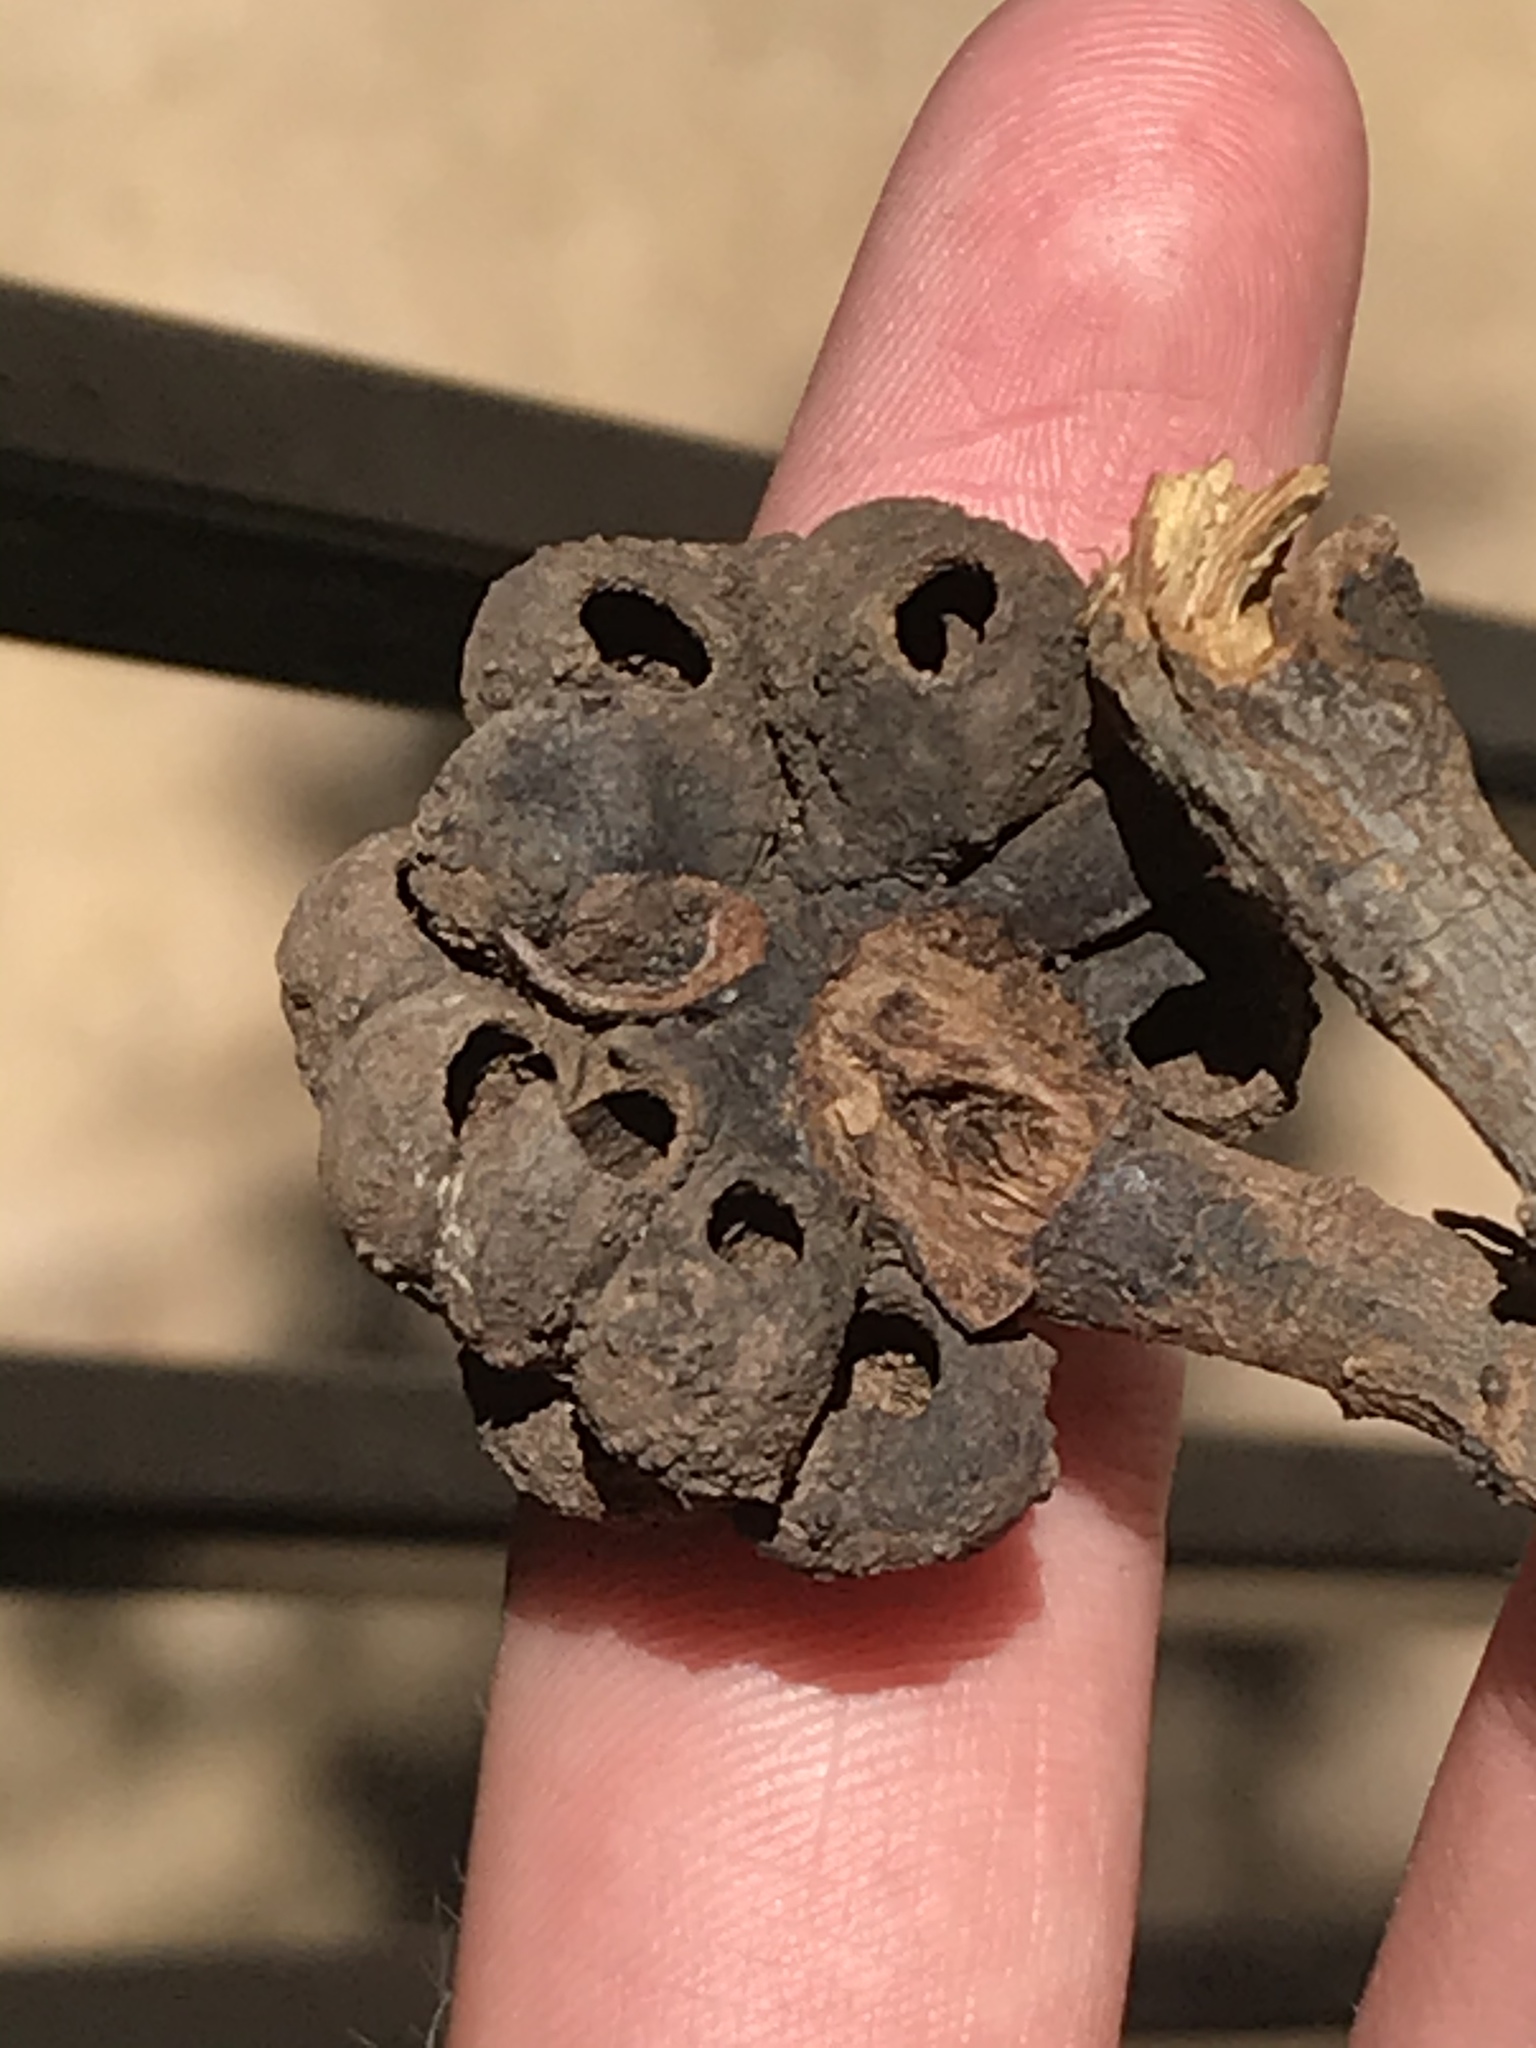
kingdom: Animalia
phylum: Arthropoda
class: Insecta
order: Hymenoptera
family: Cynipidae
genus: Odontocynips
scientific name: Odontocynips nebulosa
